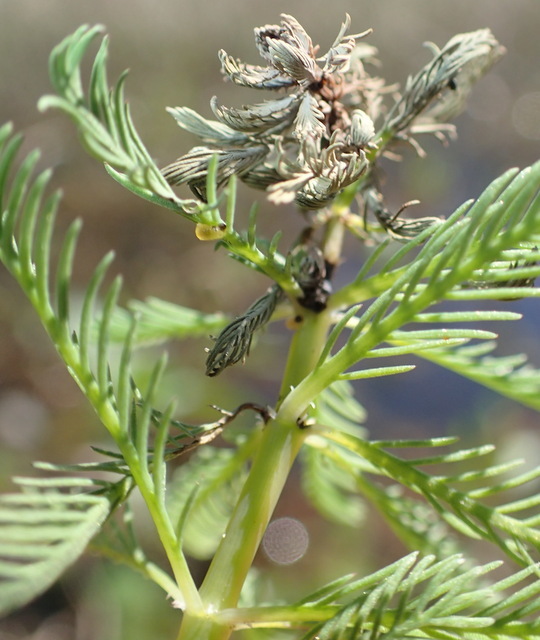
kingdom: Plantae
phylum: Tracheophyta
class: Magnoliopsida
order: Saxifragales
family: Haloragaceae
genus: Myriophyllum
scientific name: Myriophyllum aquaticum
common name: Parrot's feather
